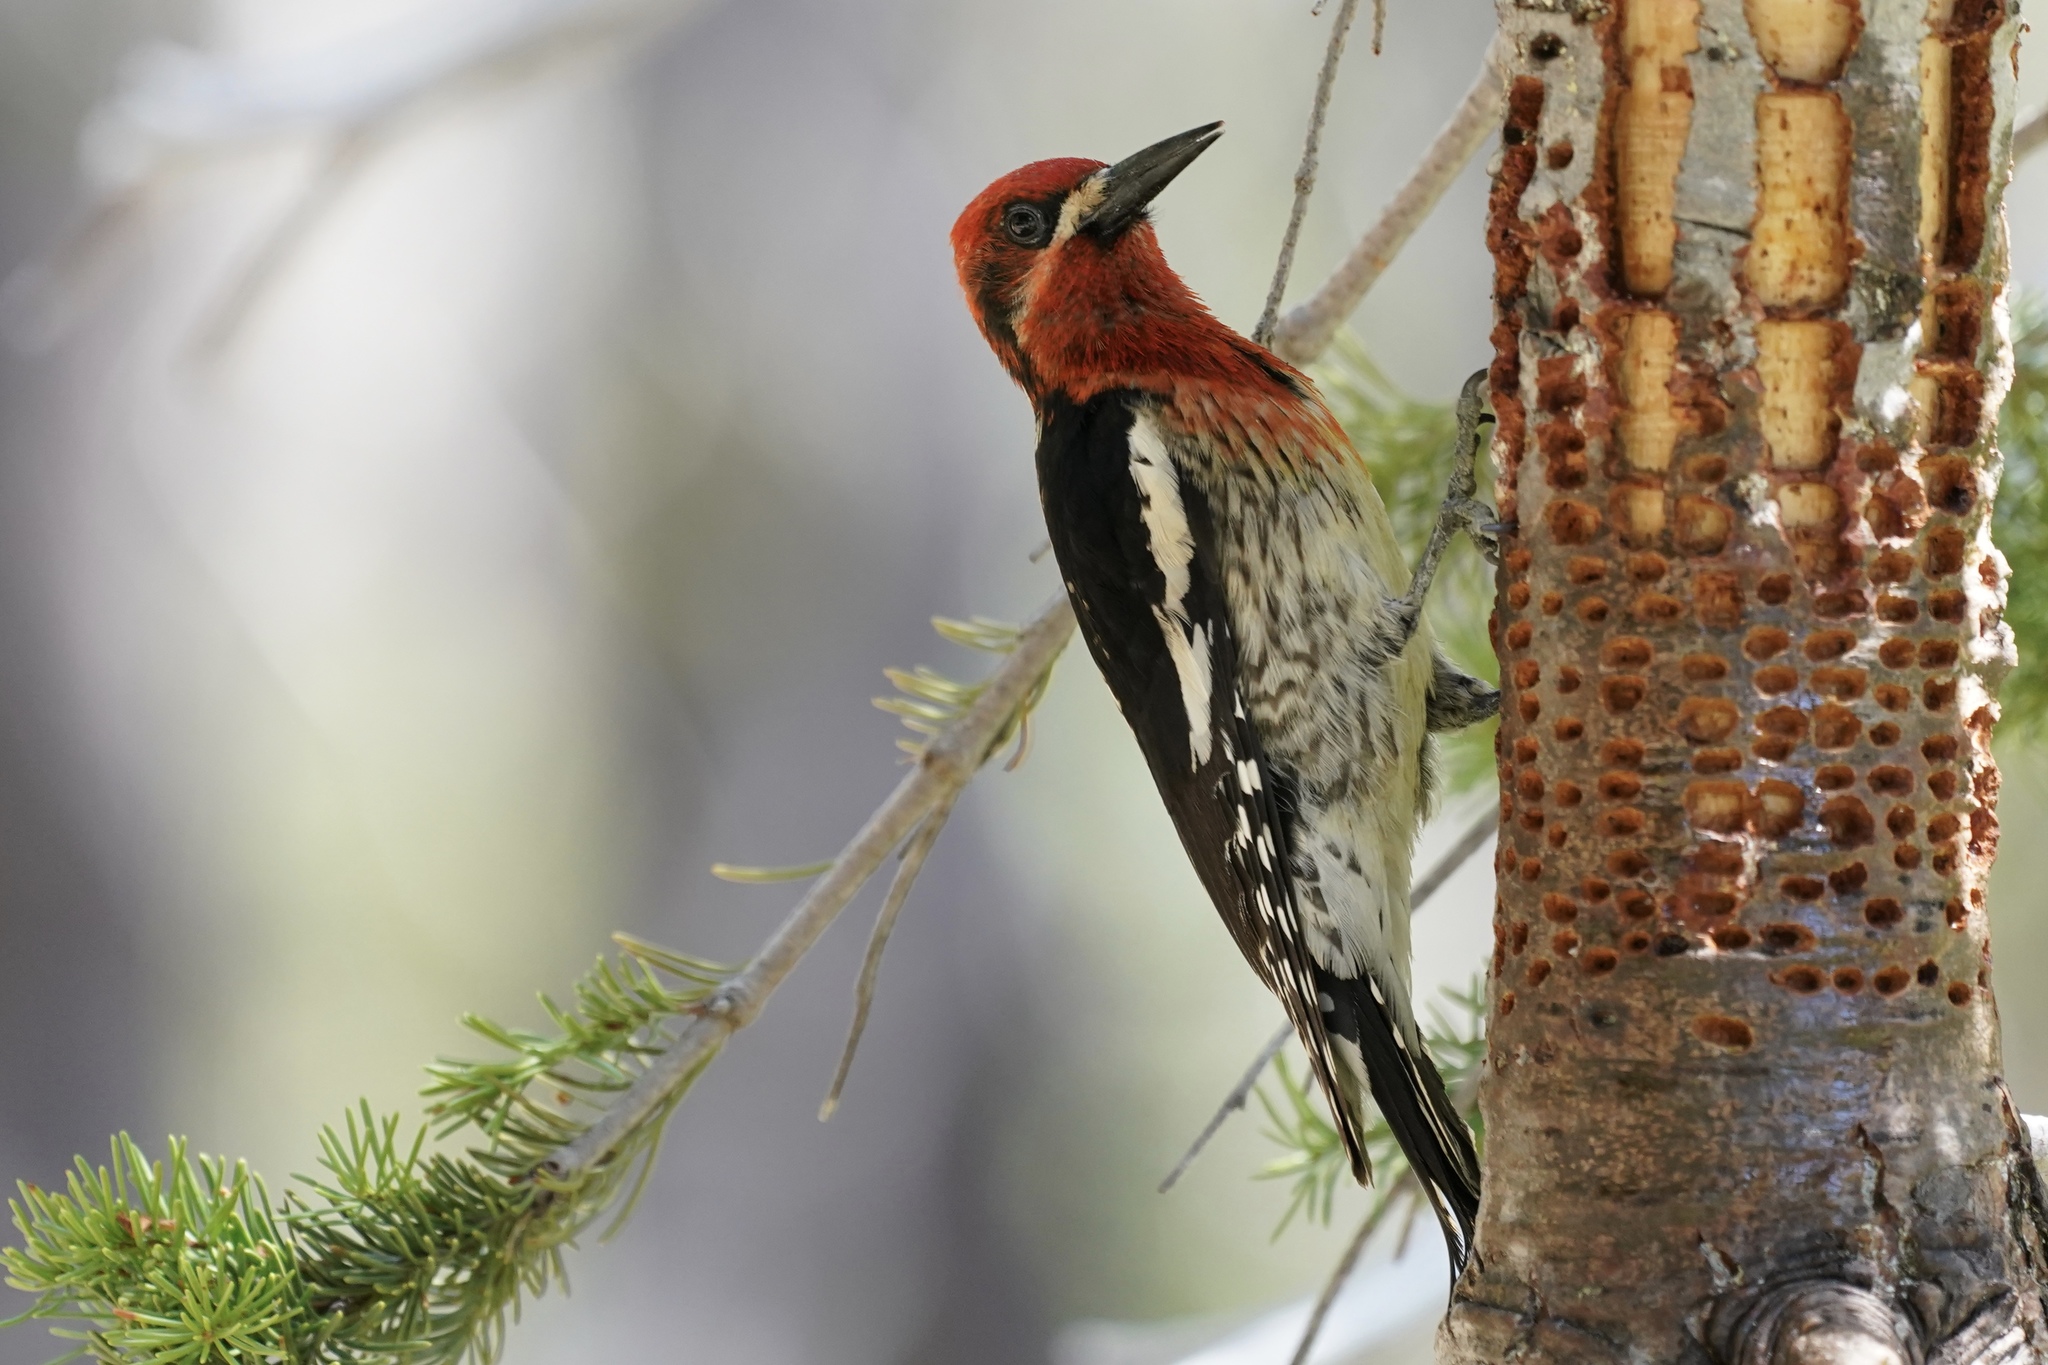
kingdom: Animalia
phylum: Chordata
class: Aves
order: Piciformes
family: Picidae
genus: Sphyrapicus
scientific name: Sphyrapicus ruber
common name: Red-breasted sapsucker
